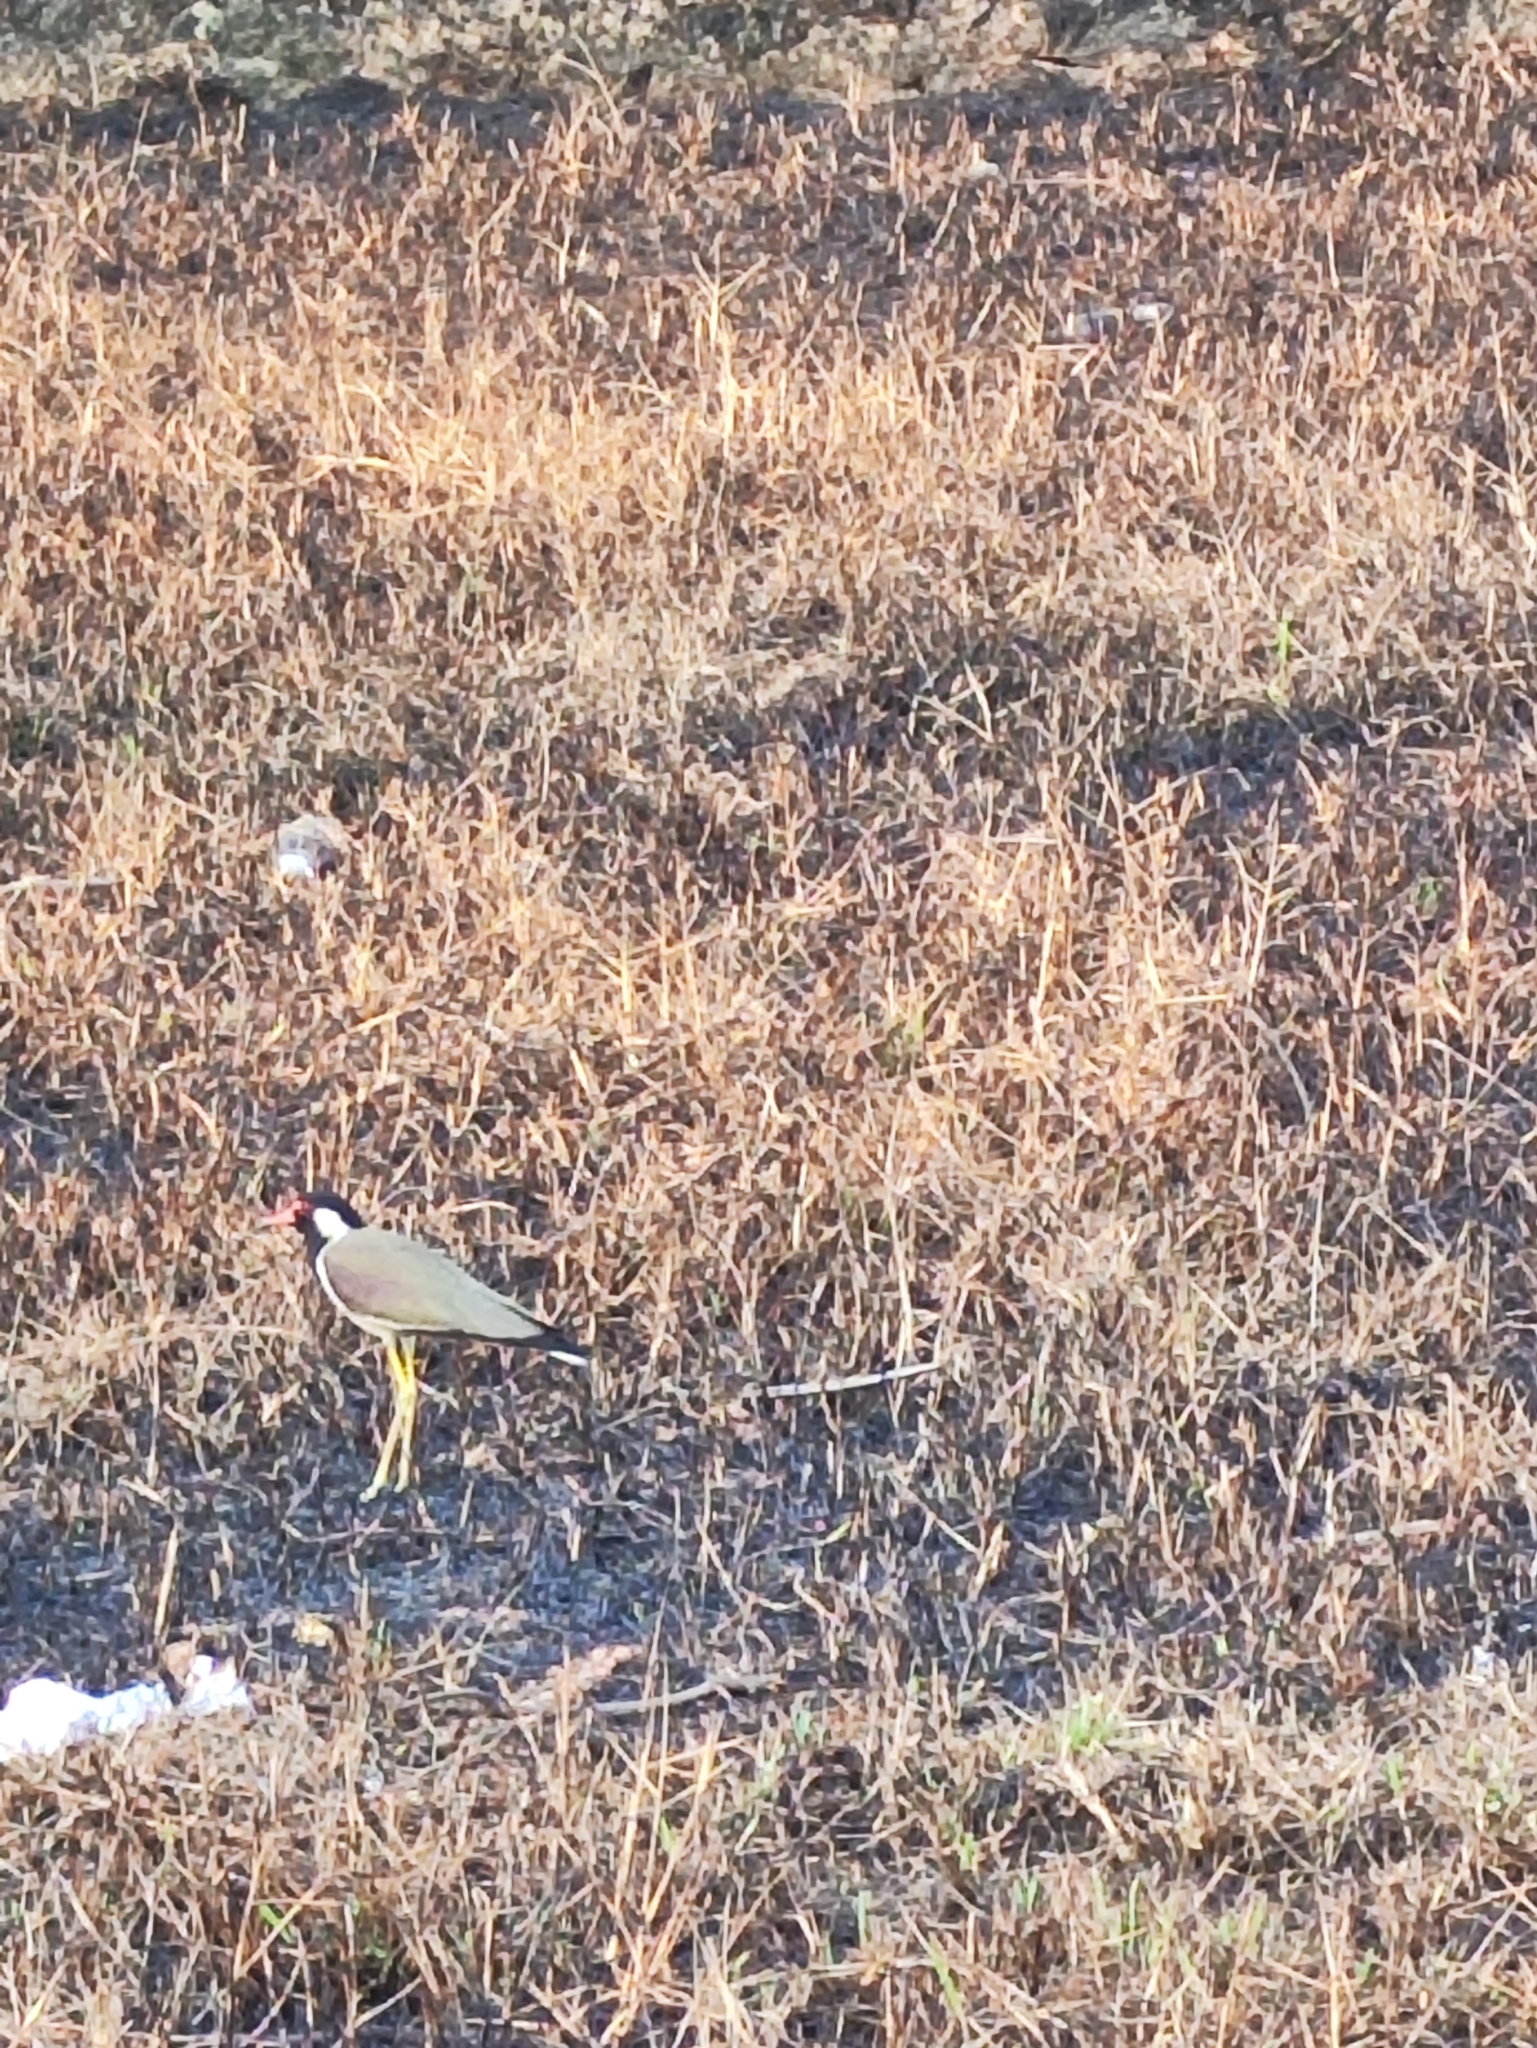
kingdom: Animalia
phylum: Chordata
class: Aves
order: Charadriiformes
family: Charadriidae
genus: Vanellus
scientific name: Vanellus indicus
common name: Red-wattled lapwing
